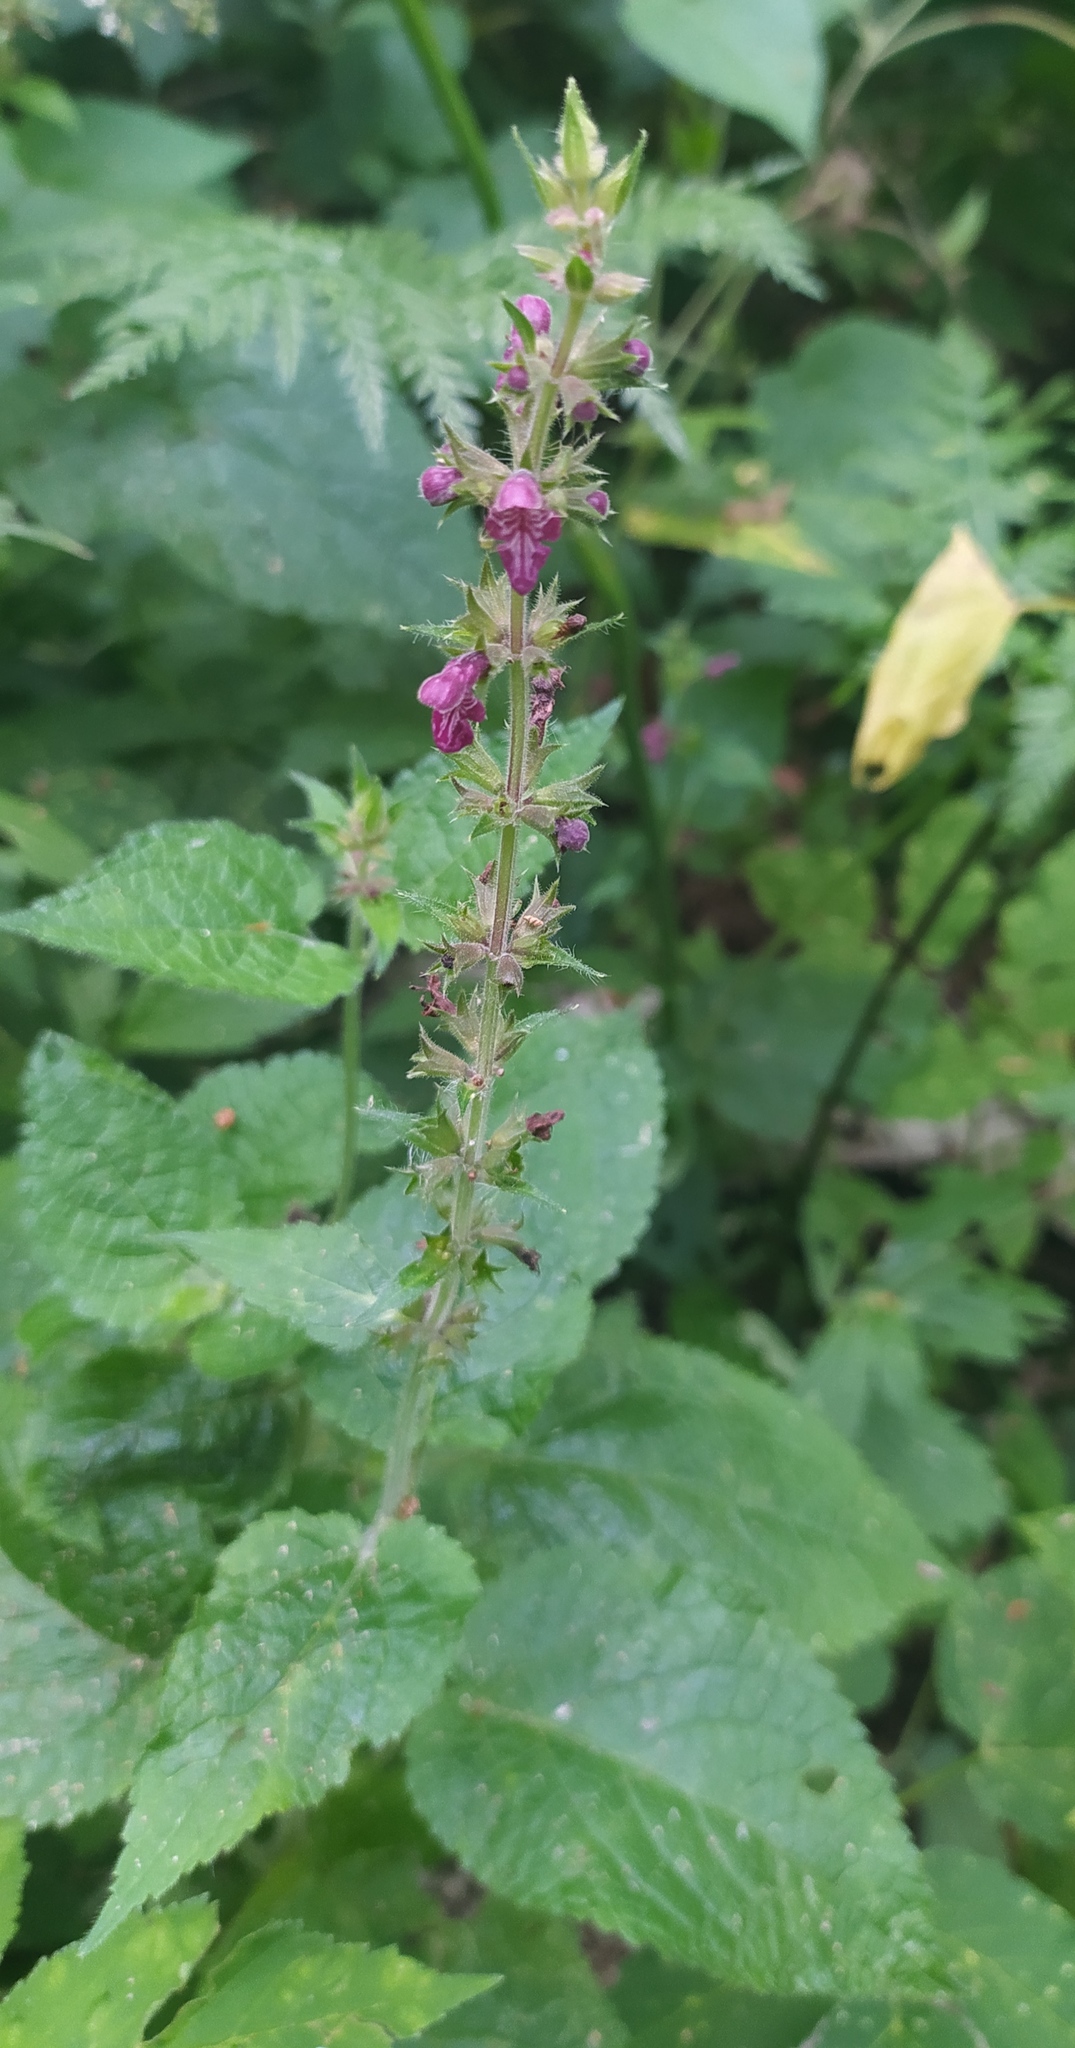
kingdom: Plantae
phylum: Tracheophyta
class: Magnoliopsida
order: Lamiales
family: Lamiaceae
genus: Stachys
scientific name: Stachys sylvatica
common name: Hedge woundwort
